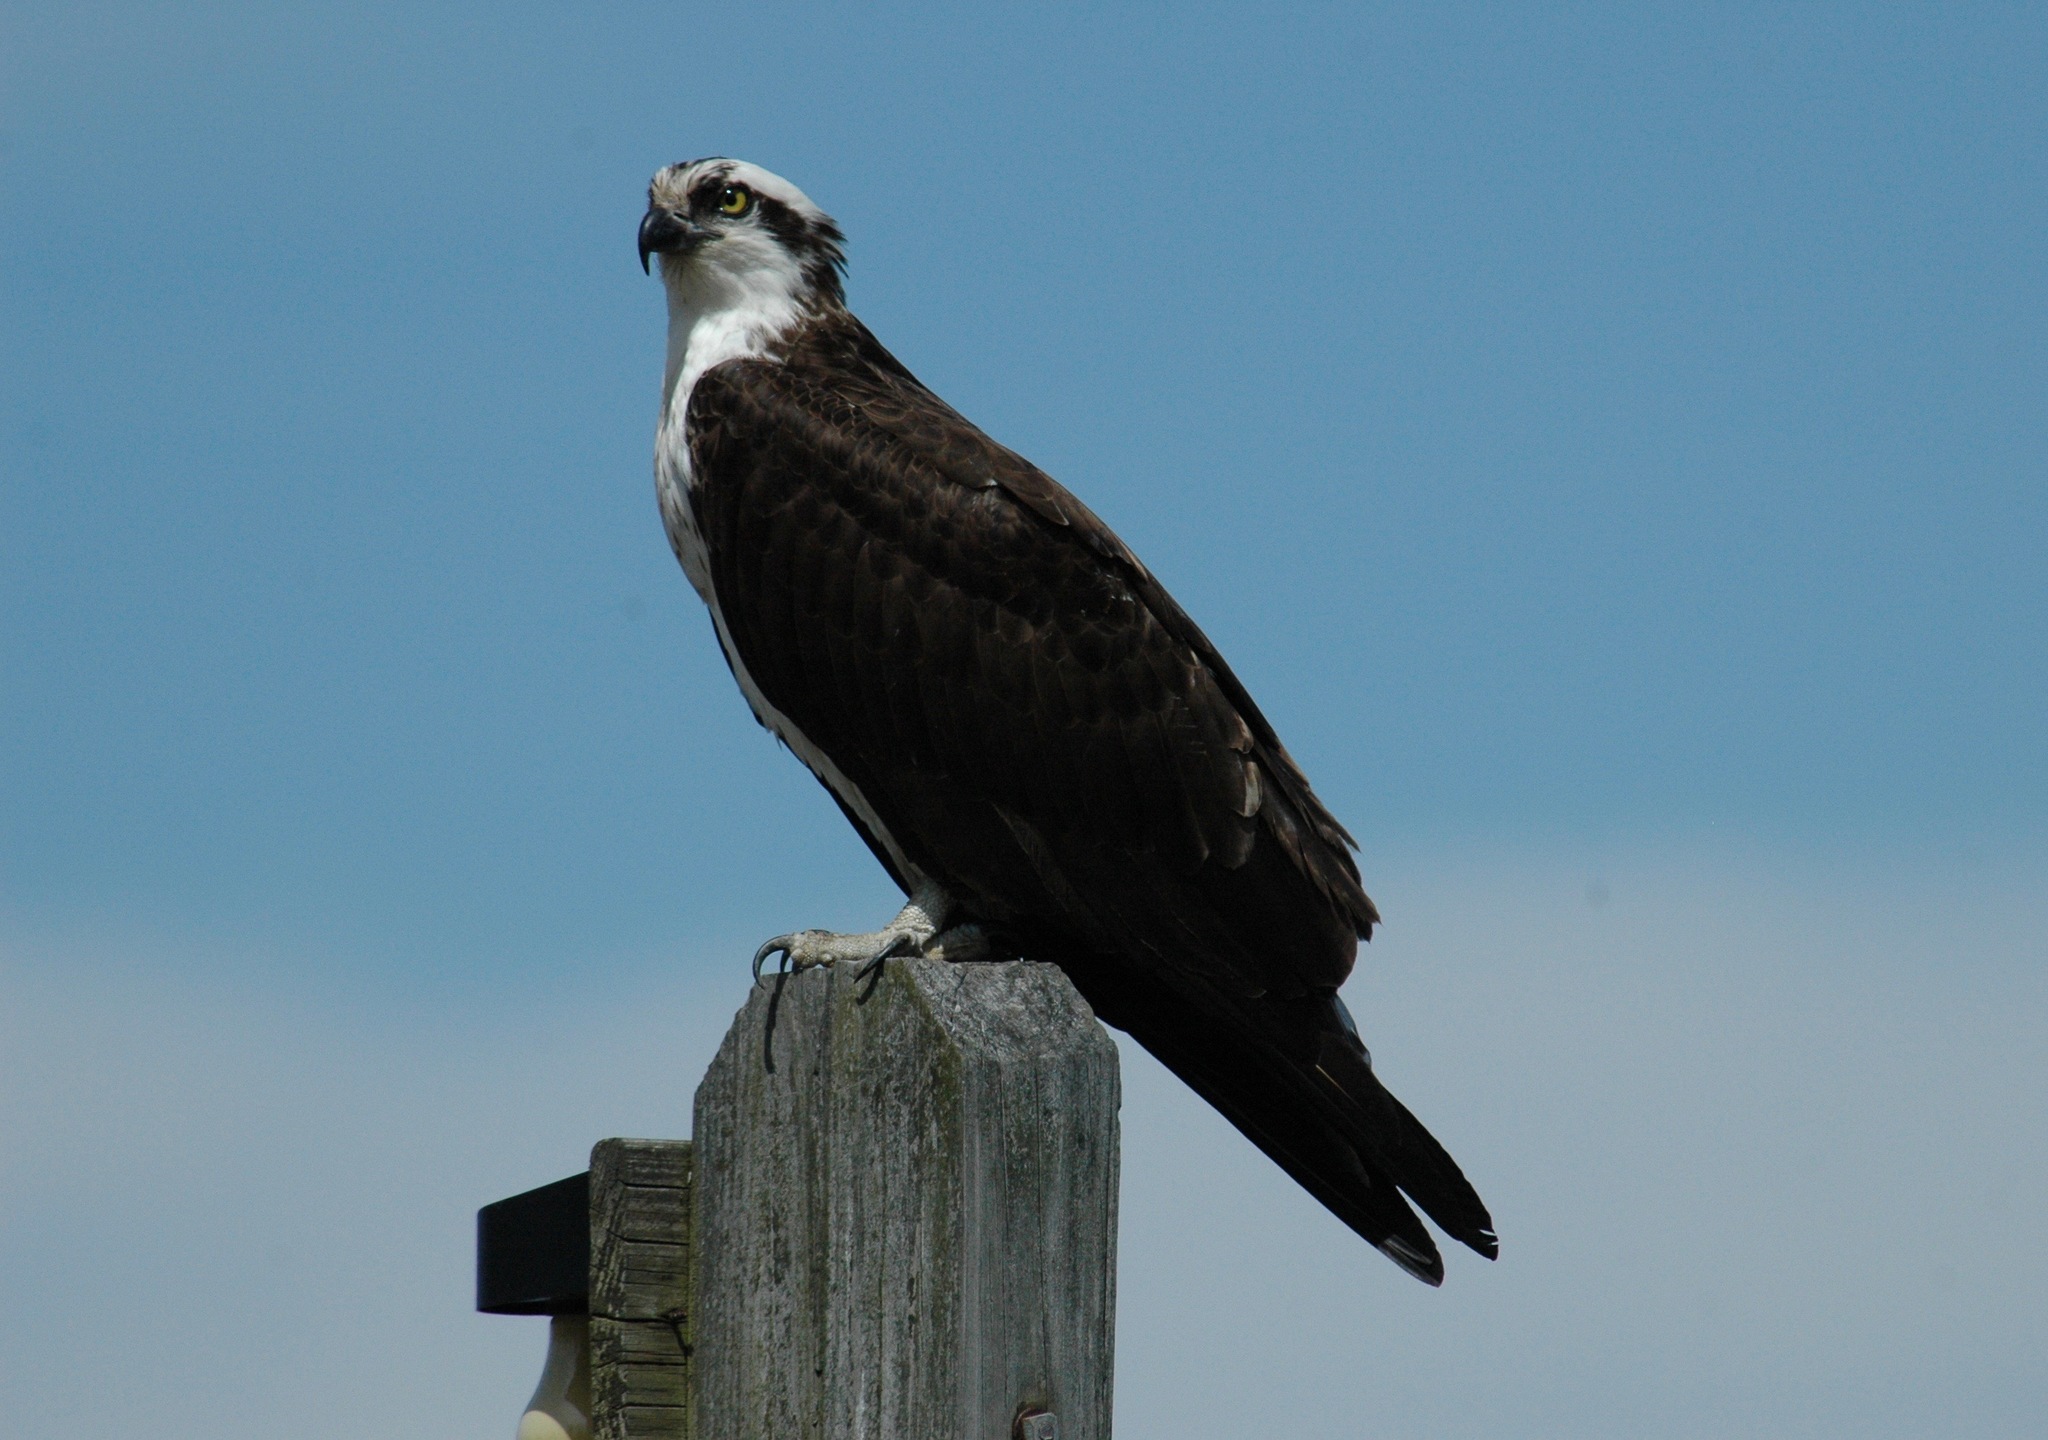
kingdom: Animalia
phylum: Chordata
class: Aves
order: Accipitriformes
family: Pandionidae
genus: Pandion
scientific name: Pandion haliaetus
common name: Osprey
